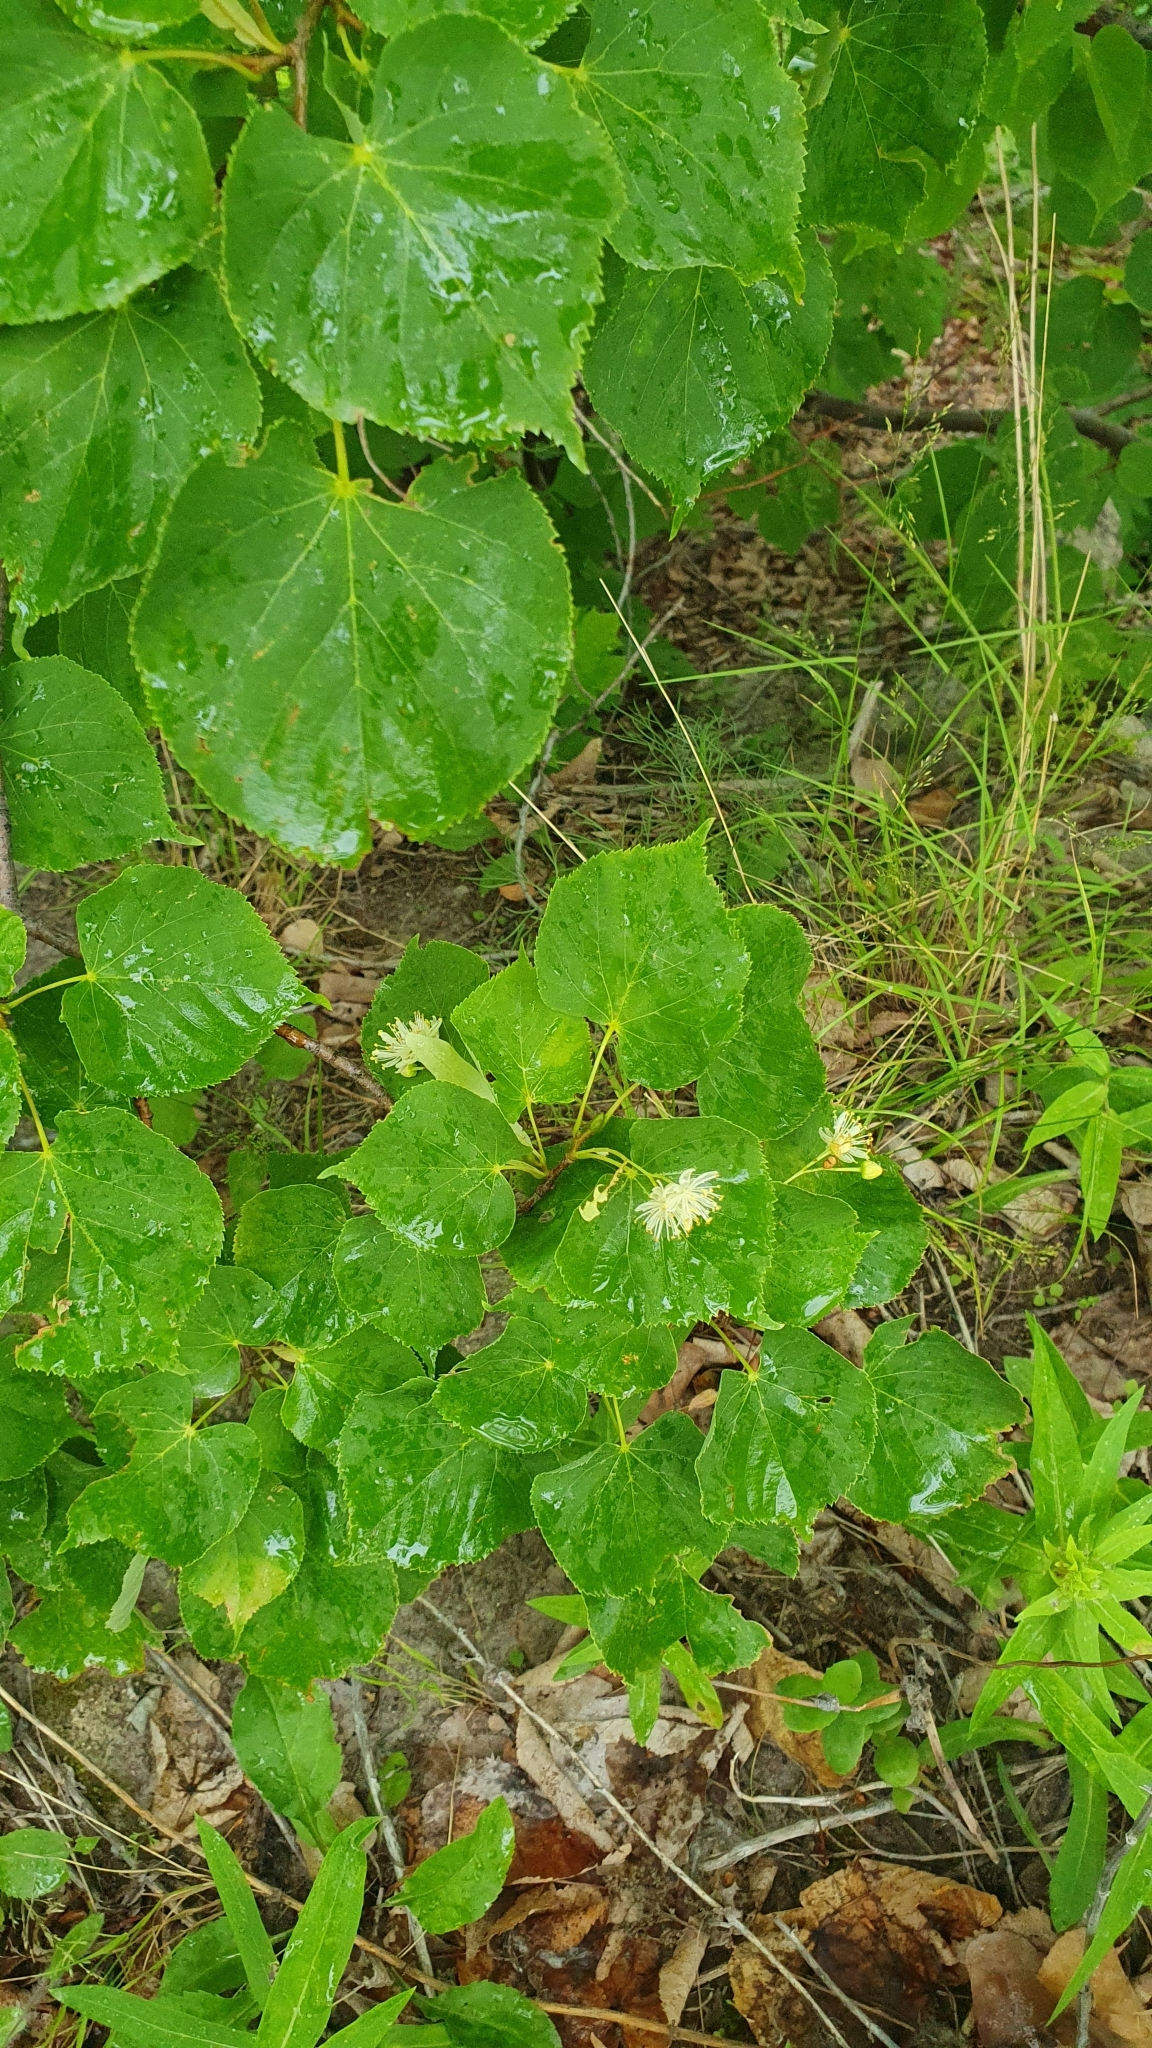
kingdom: Plantae
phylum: Tracheophyta
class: Magnoliopsida
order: Malvales
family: Malvaceae
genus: Tilia
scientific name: Tilia cordata
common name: Small-leaved lime
